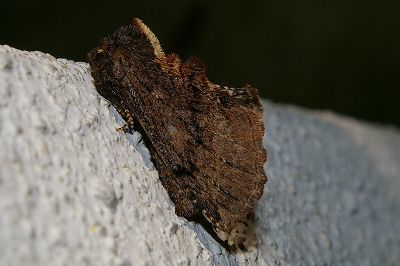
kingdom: Animalia
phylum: Arthropoda
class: Insecta
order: Lepidoptera
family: Notodontidae
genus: Ptilodon
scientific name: Ptilodon okanoi
